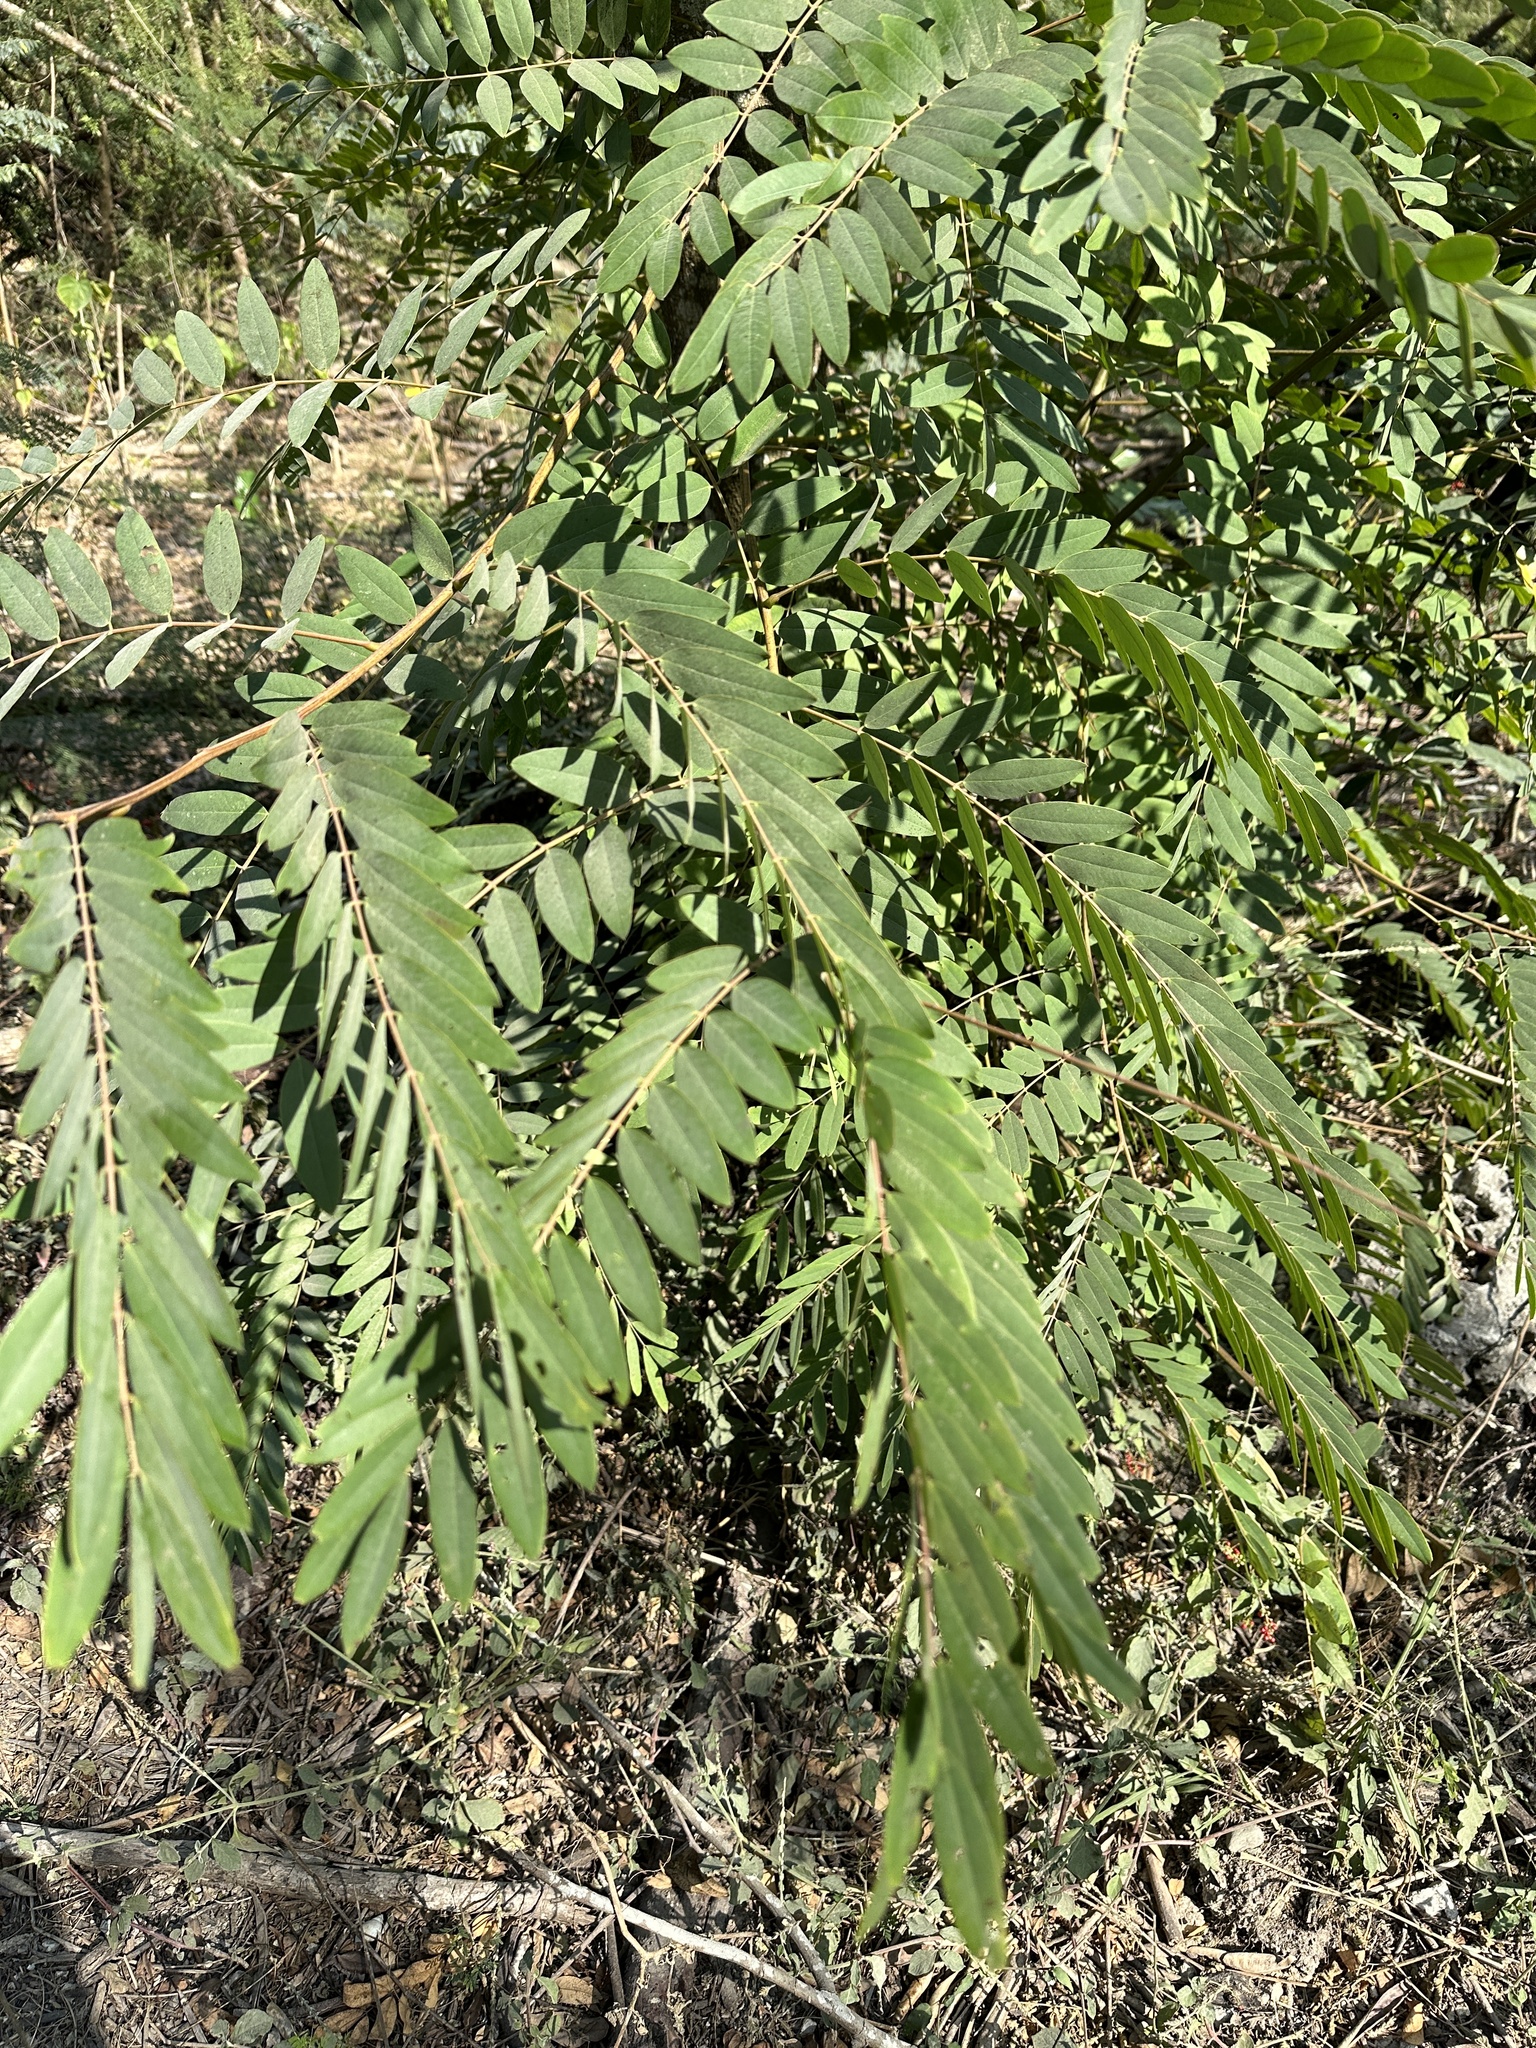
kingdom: Plantae
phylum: Tracheophyta
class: Magnoliopsida
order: Fabales
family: Fabaceae
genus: Senna
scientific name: Senna siamea
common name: Siamese cassia
